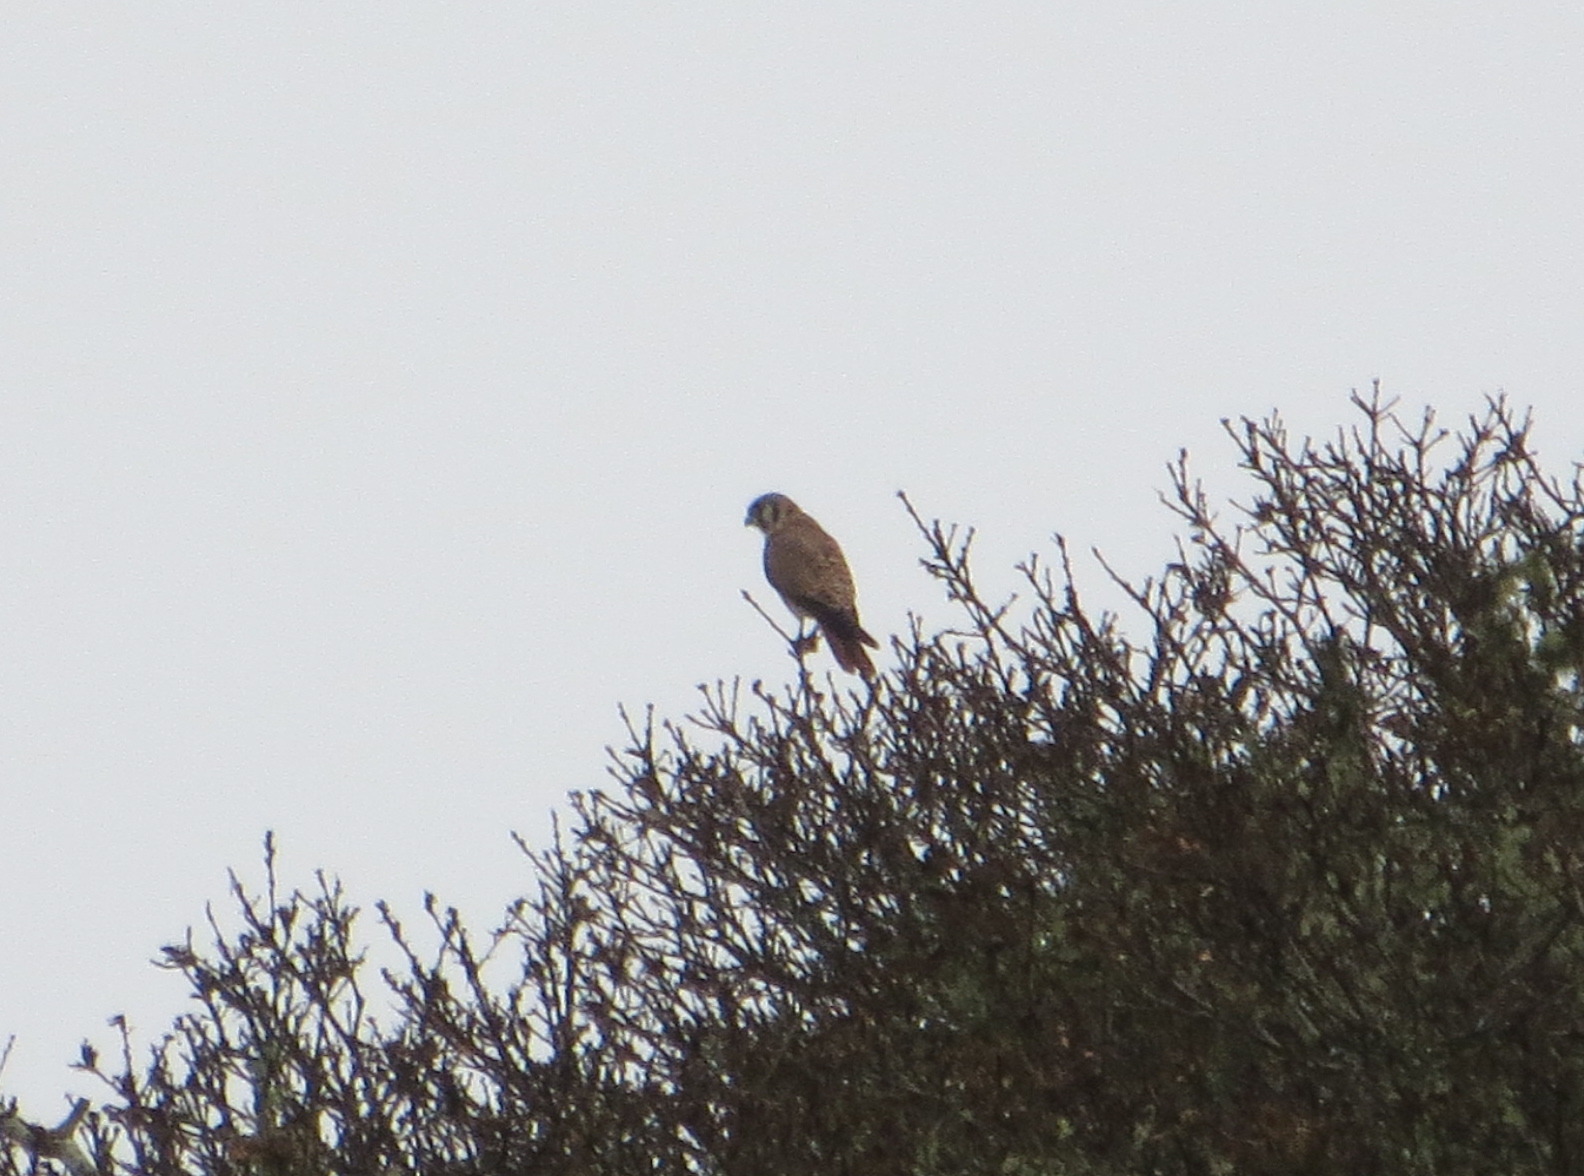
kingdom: Animalia
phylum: Chordata
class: Aves
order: Falconiformes
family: Falconidae
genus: Falco
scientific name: Falco sparverius
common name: American kestrel
